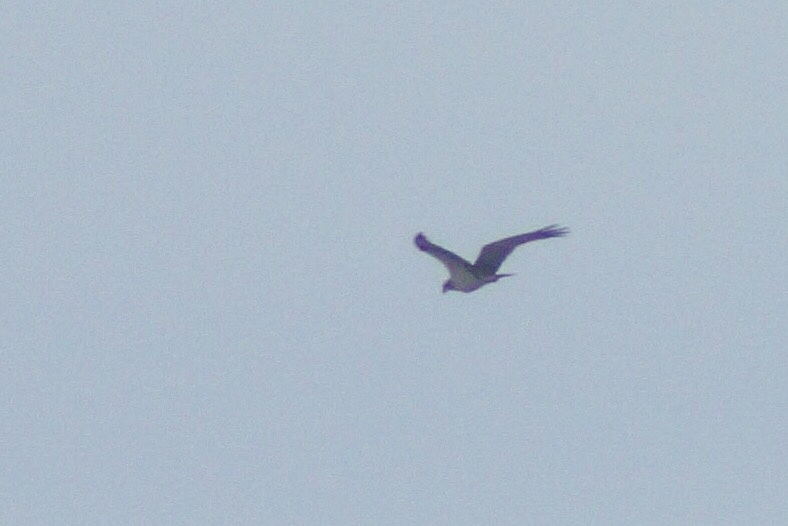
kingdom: Animalia
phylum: Chordata
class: Aves
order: Accipitriformes
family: Pandionidae
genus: Pandion
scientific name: Pandion haliaetus
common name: Osprey
